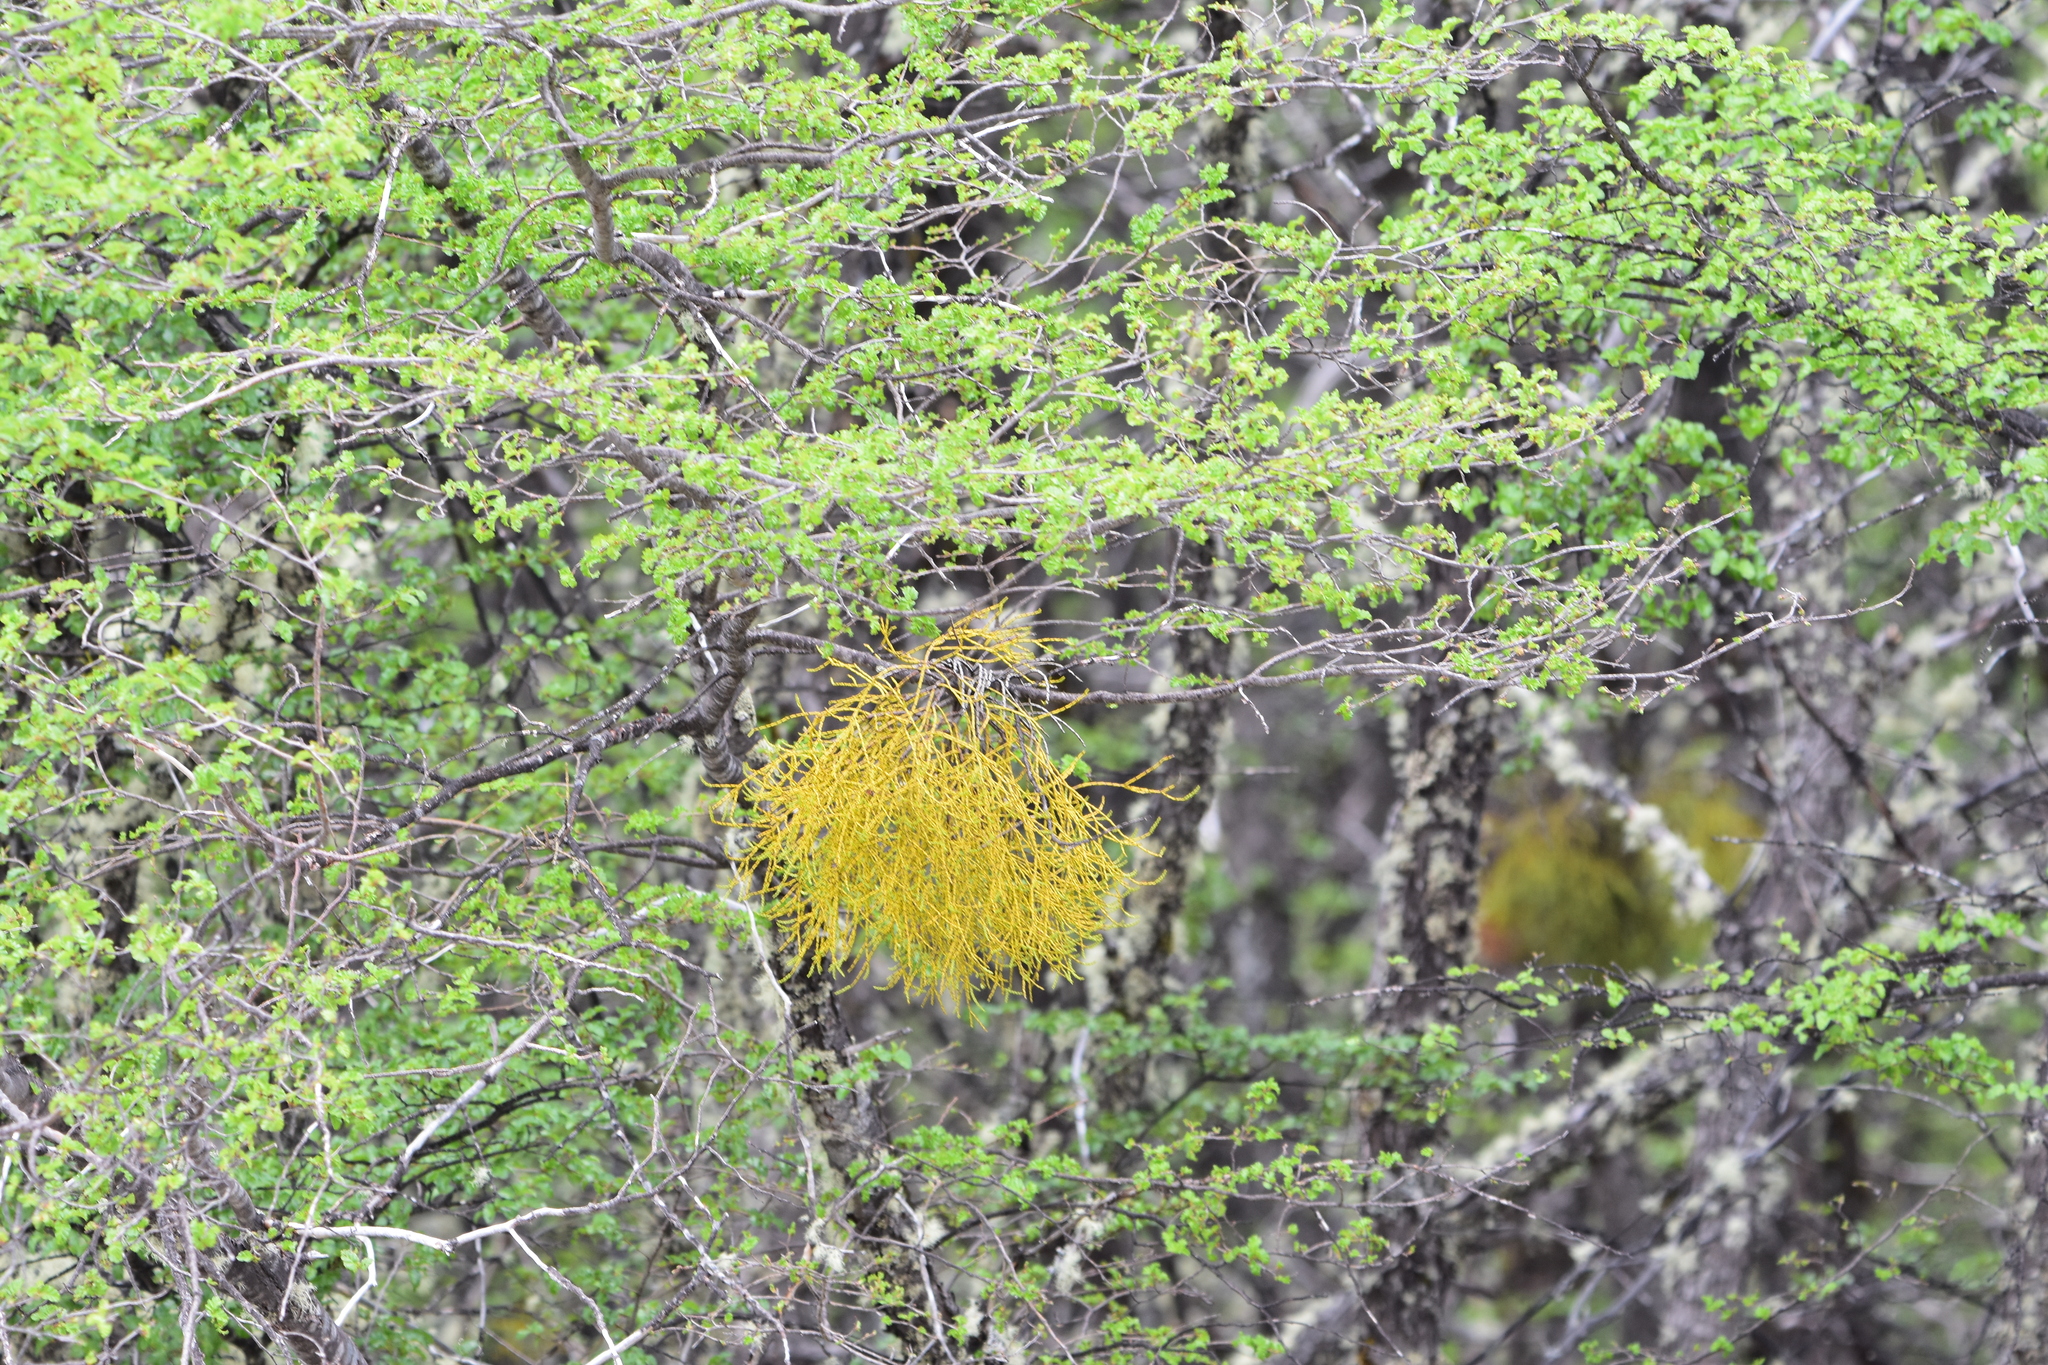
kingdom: Plantae
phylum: Tracheophyta
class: Magnoliopsida
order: Santalales
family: Misodendraceae
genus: Misodendrum
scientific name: Misodendrum punctulatum
